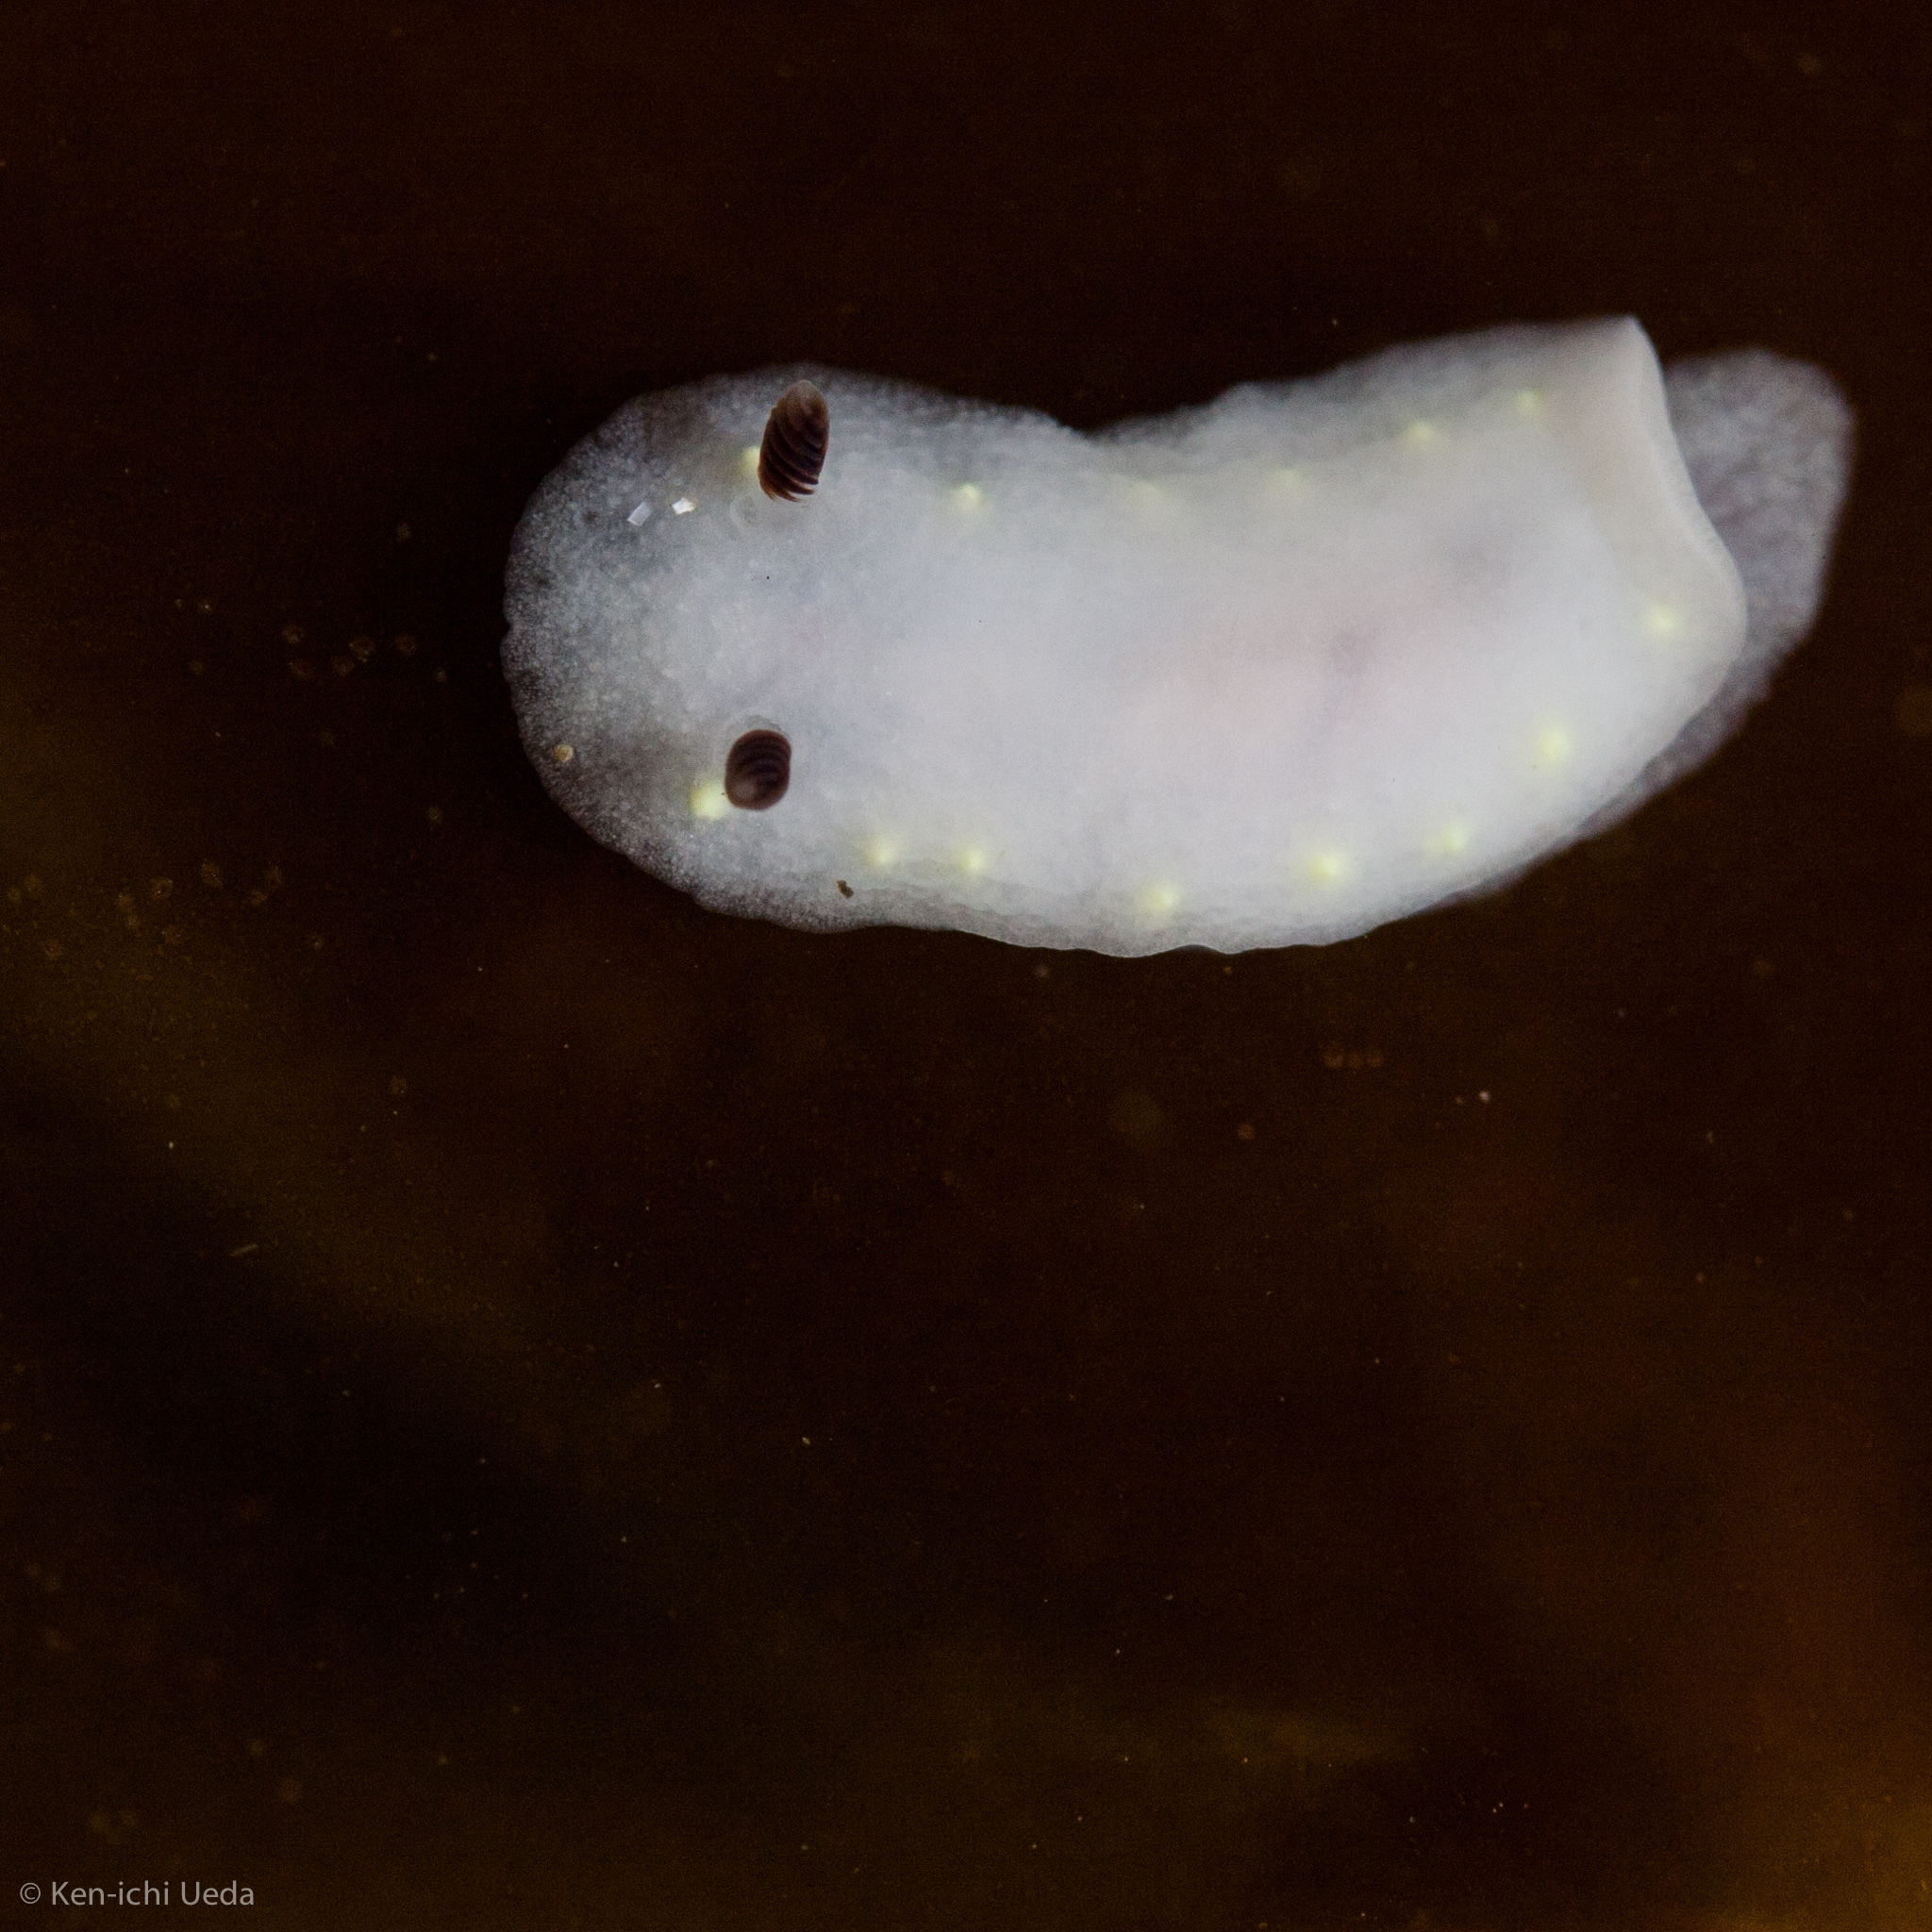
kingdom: Animalia
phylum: Mollusca
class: Gastropoda
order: Nudibranchia
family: Cadlinidae
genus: Cadlina
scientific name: Cadlina flavomaculata
